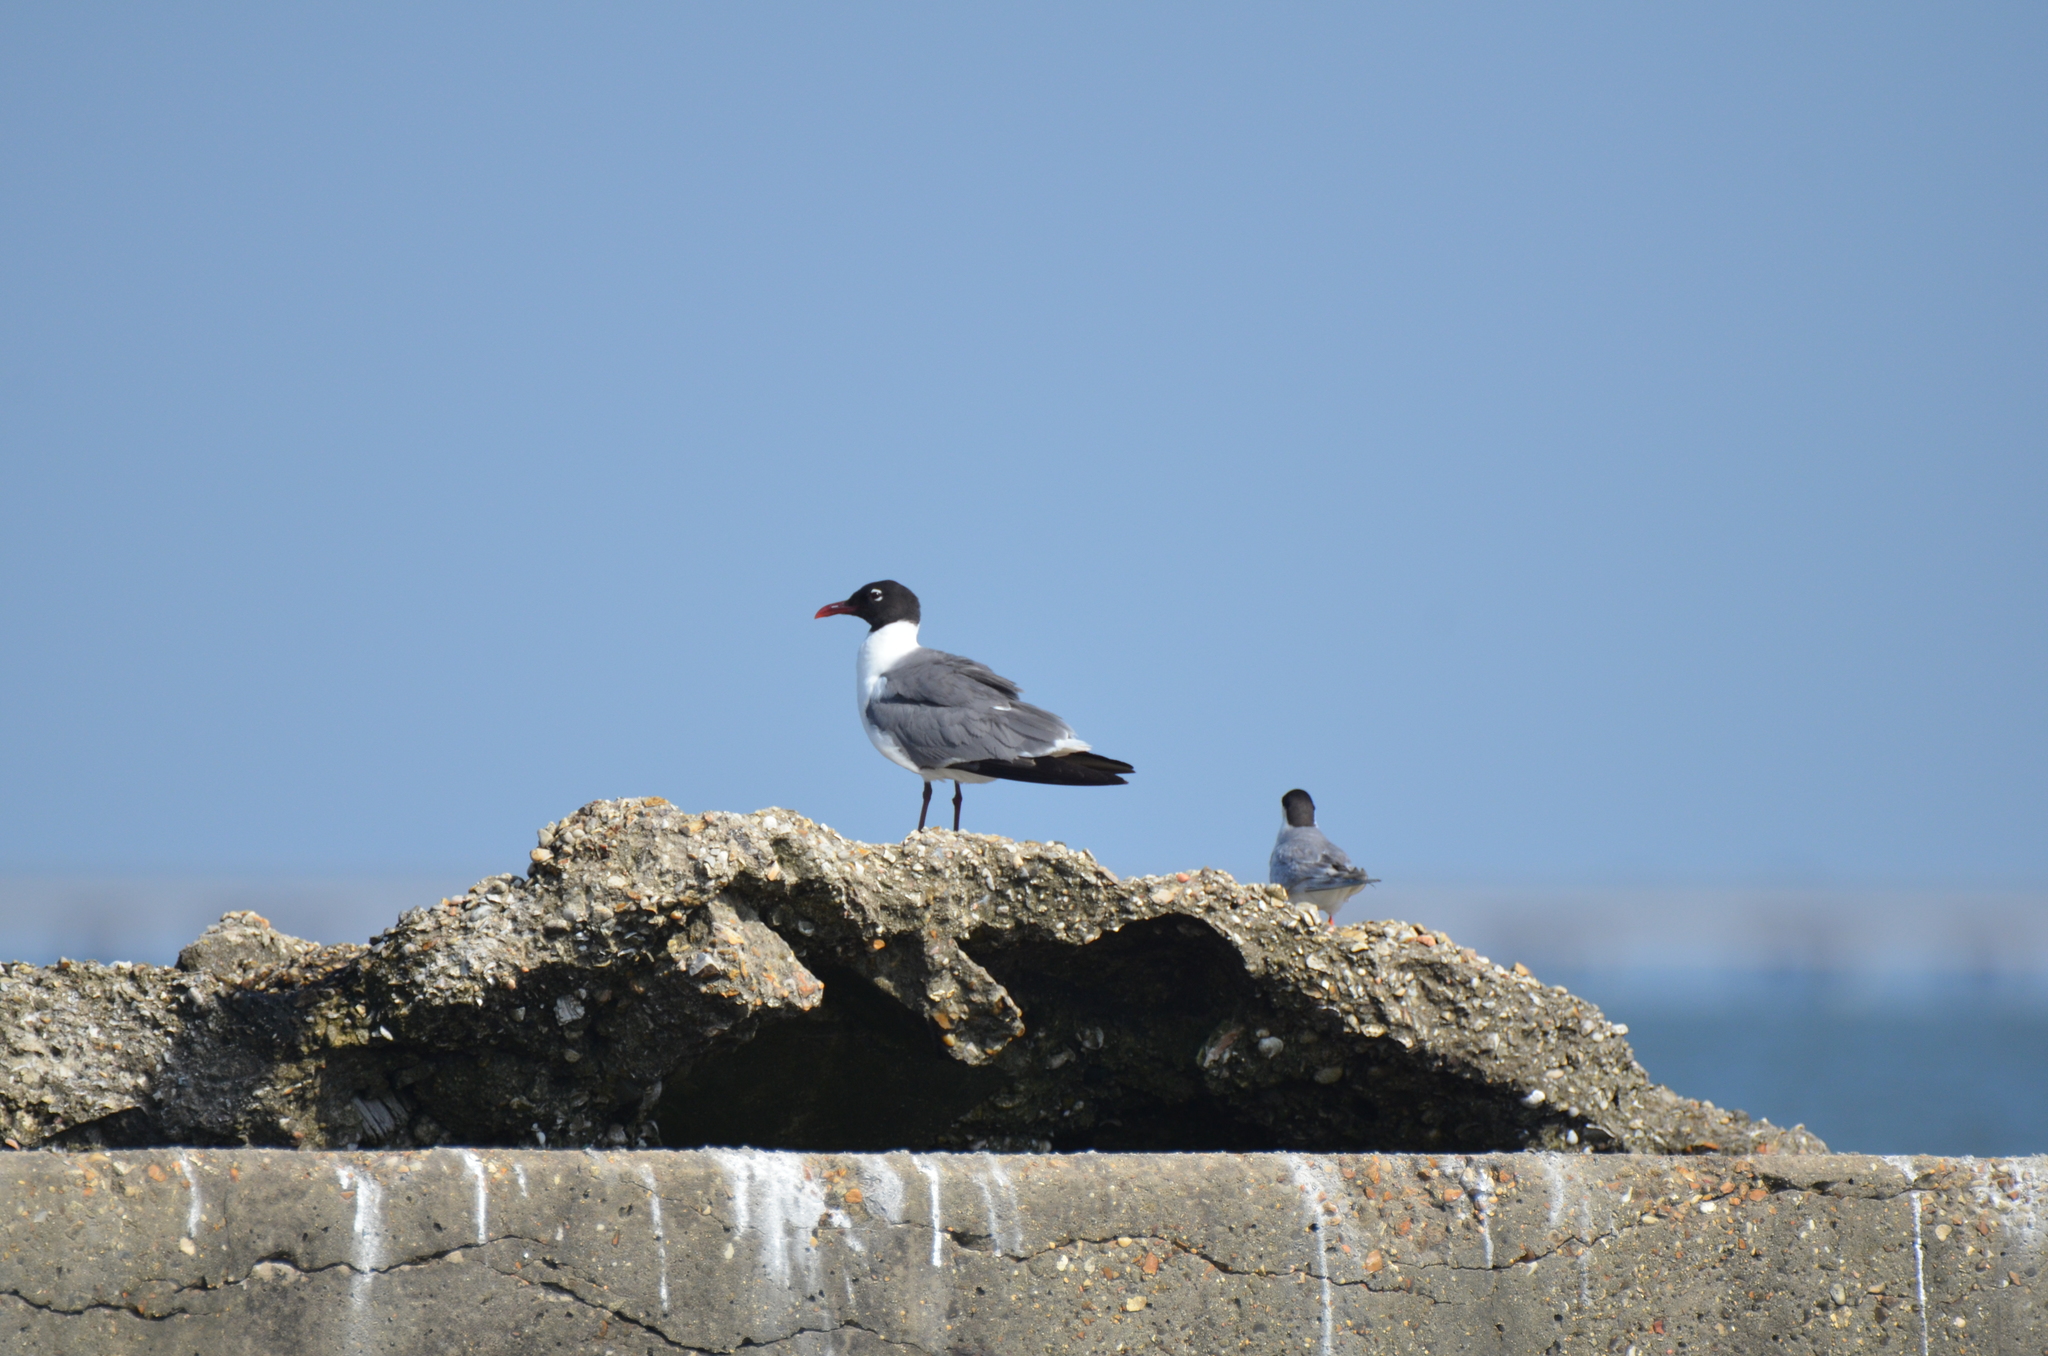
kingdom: Animalia
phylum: Chordata
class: Aves
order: Charadriiformes
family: Laridae
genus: Leucophaeus
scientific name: Leucophaeus atricilla
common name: Laughing gull
